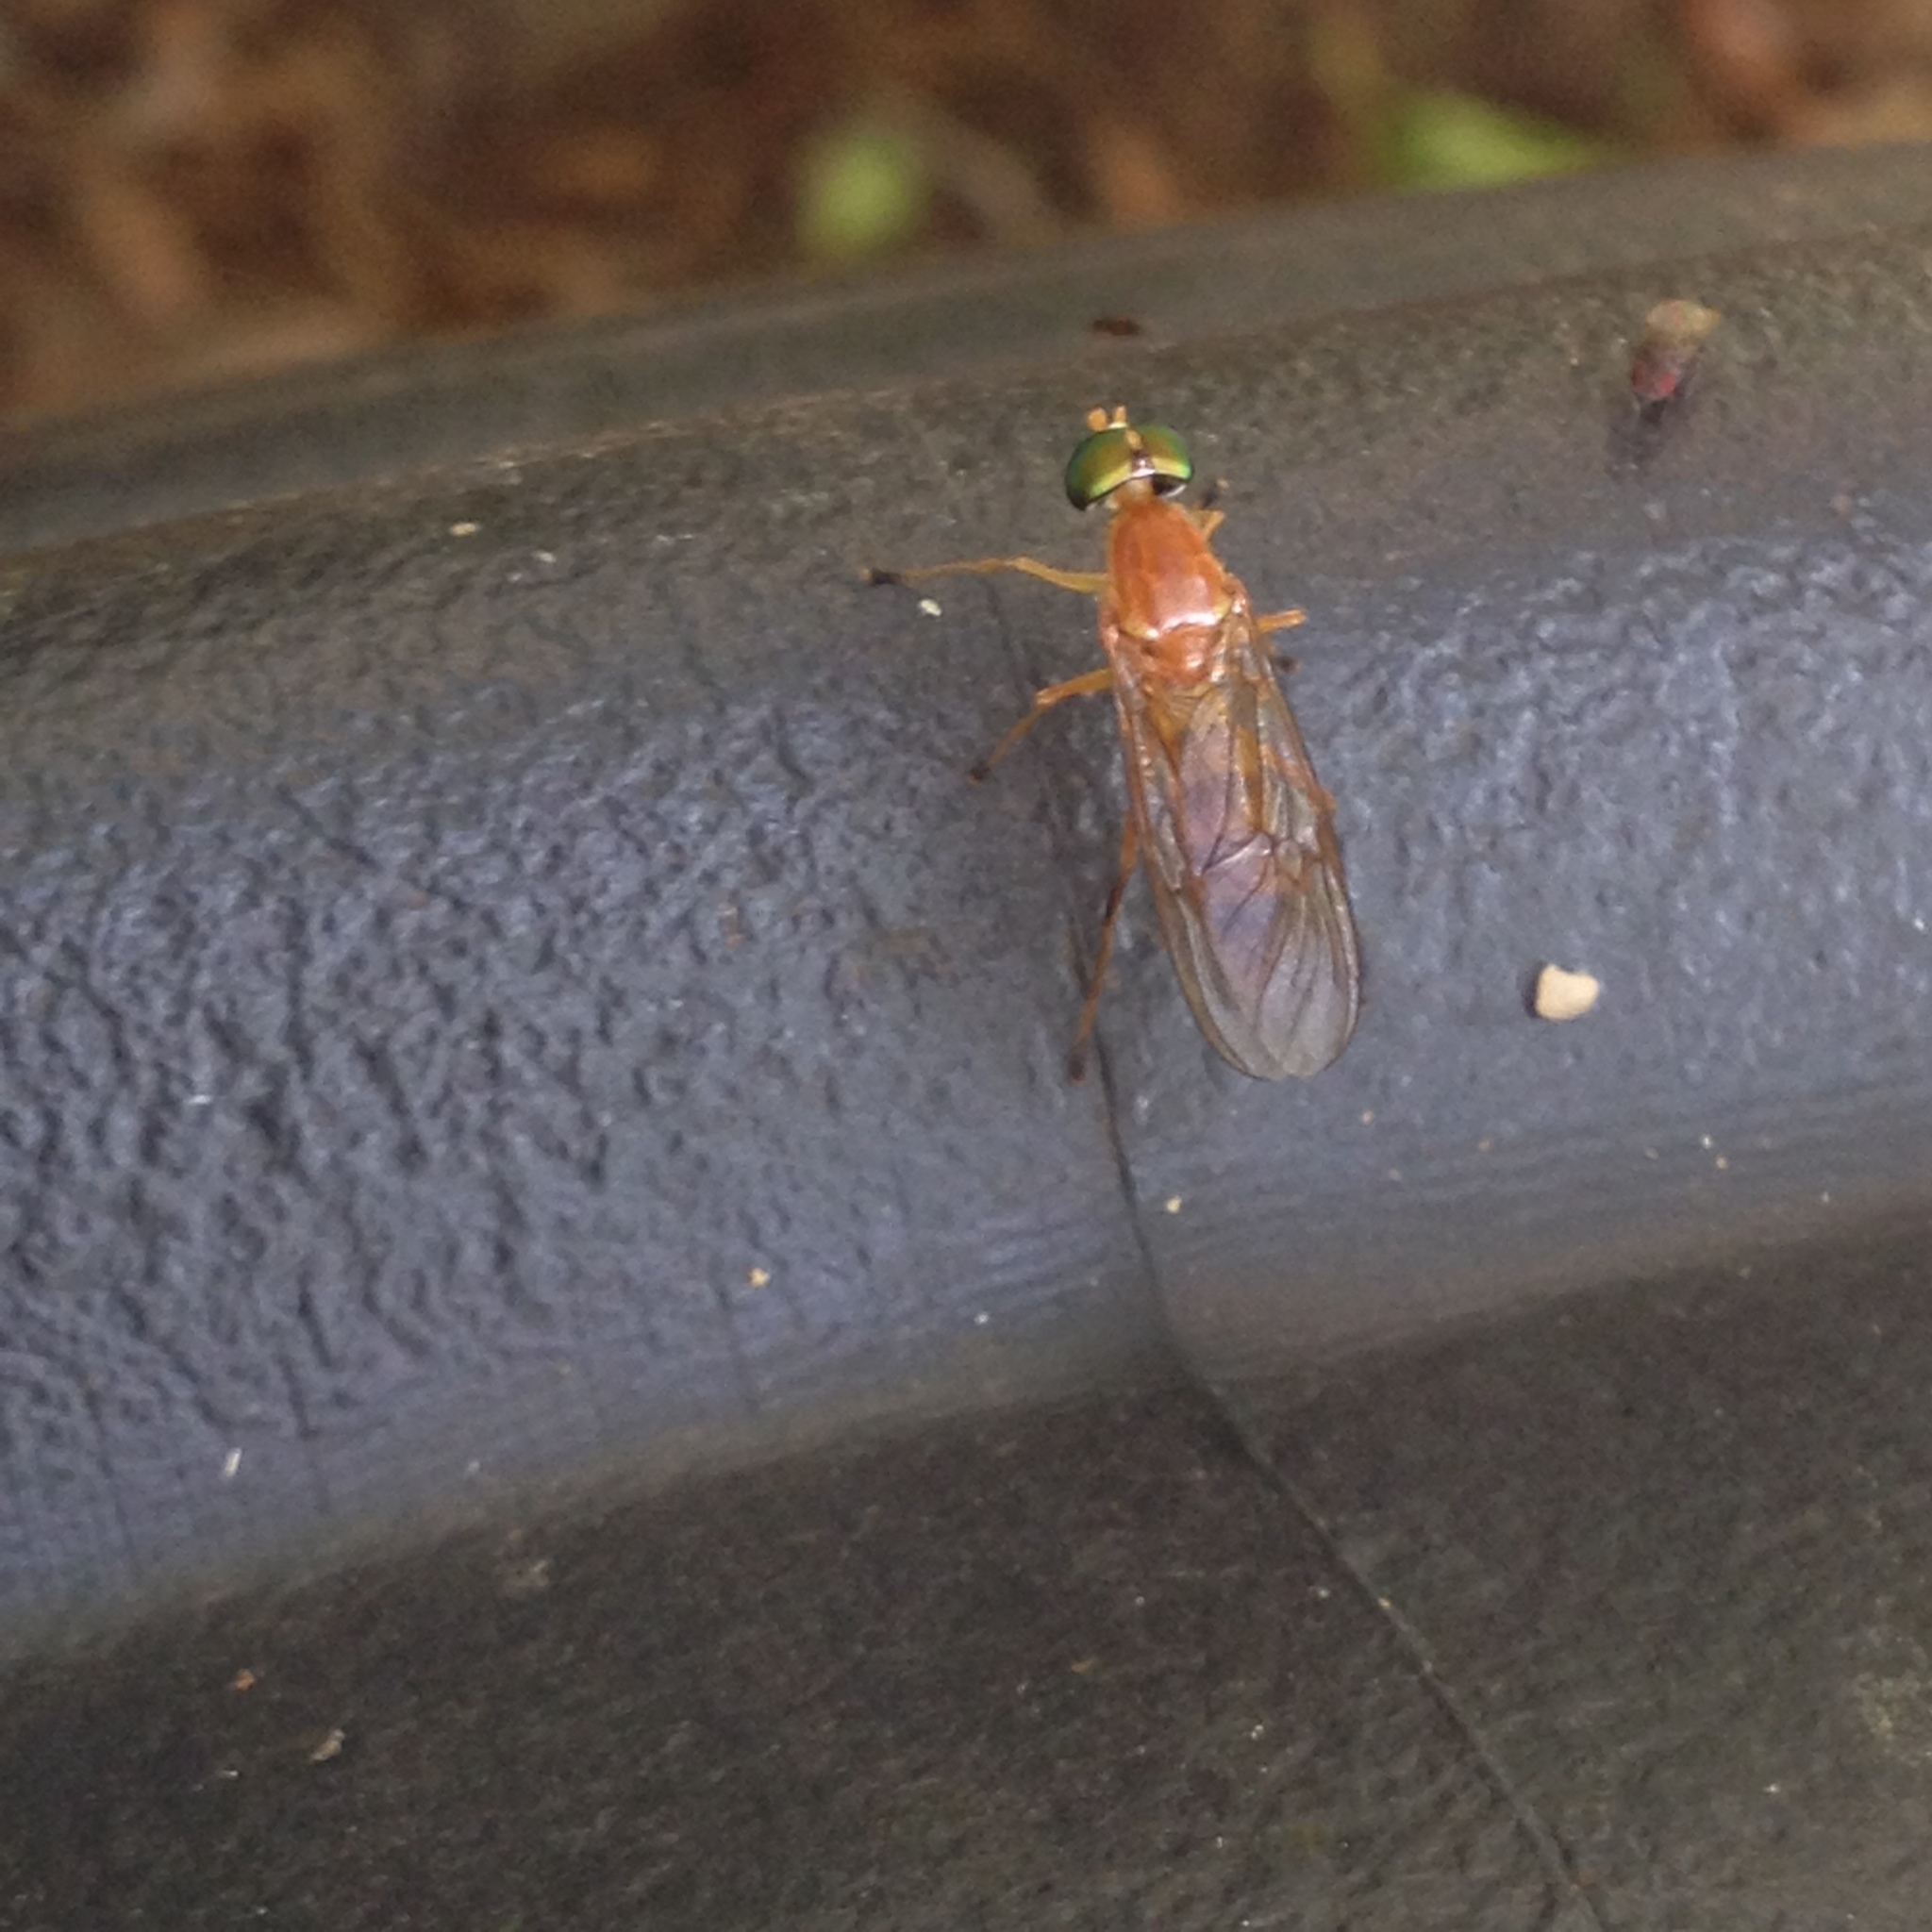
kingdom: Animalia
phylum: Arthropoda
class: Insecta
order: Diptera
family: Stratiomyidae
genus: Ptecticus
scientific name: Ptecticus trivittatus
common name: Compost fly
